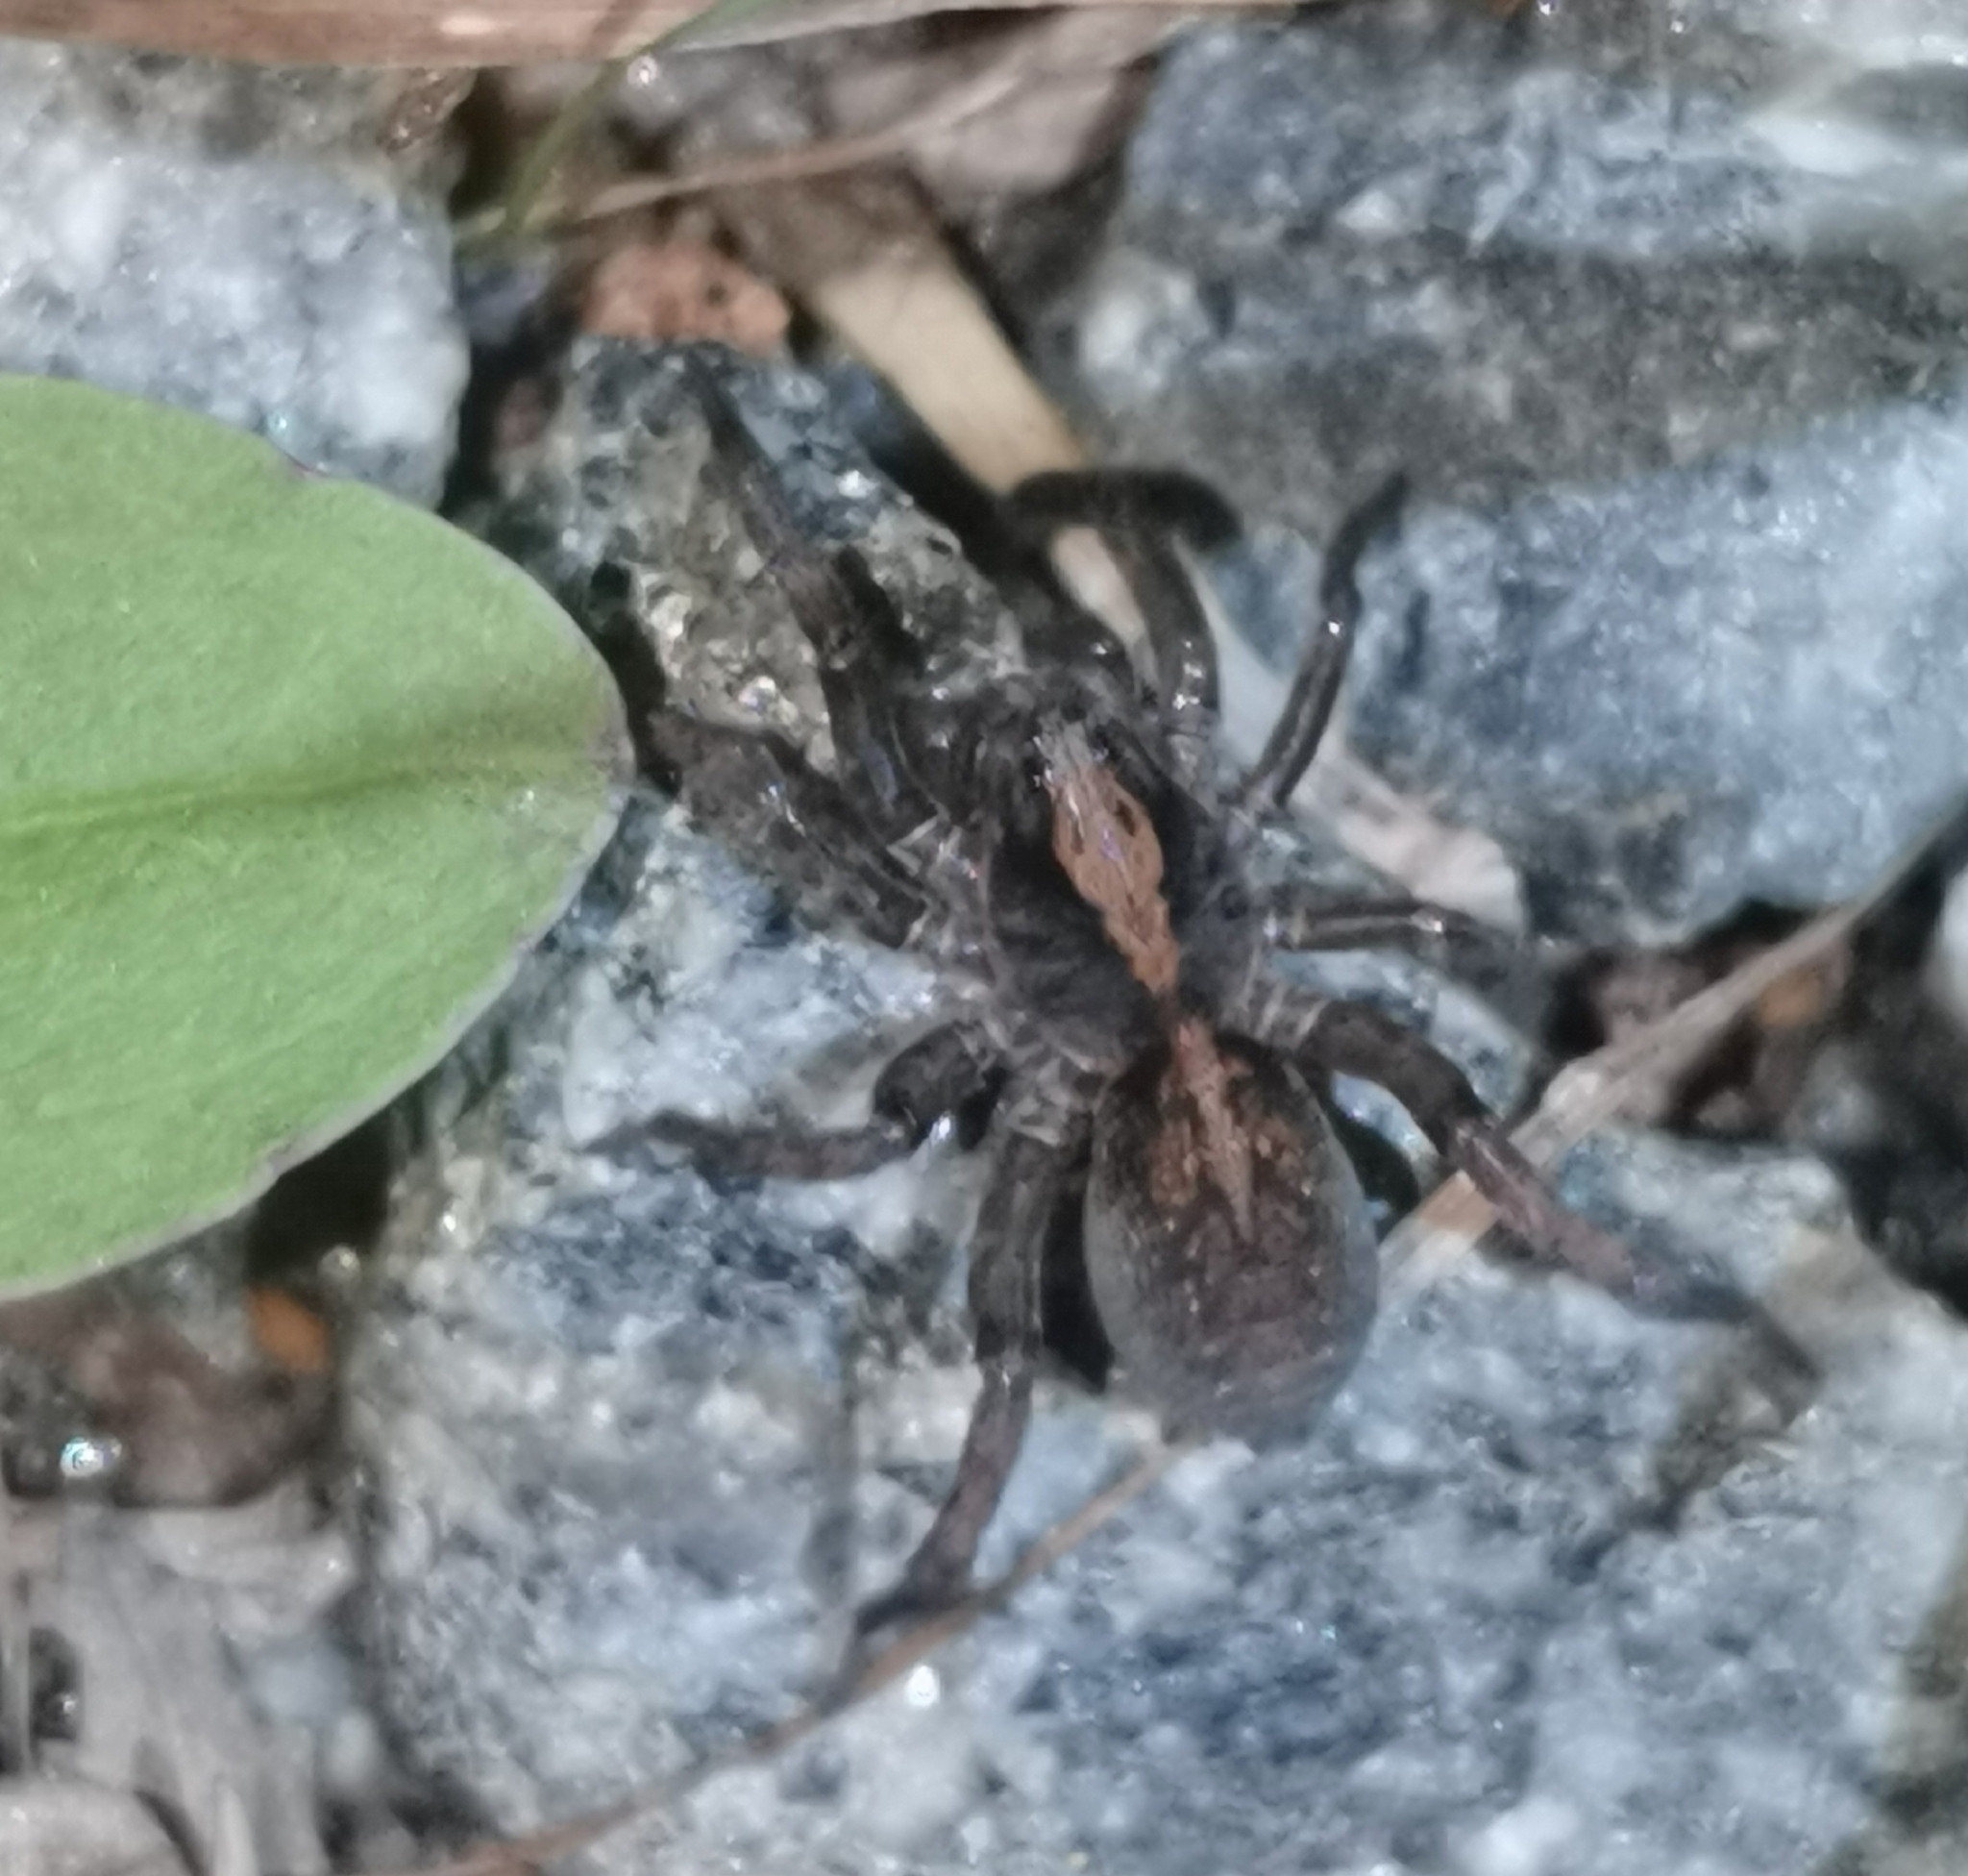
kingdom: Animalia
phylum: Arthropoda
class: Arachnida
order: Araneae
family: Lycosidae
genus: Trochosa
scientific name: Trochosa
